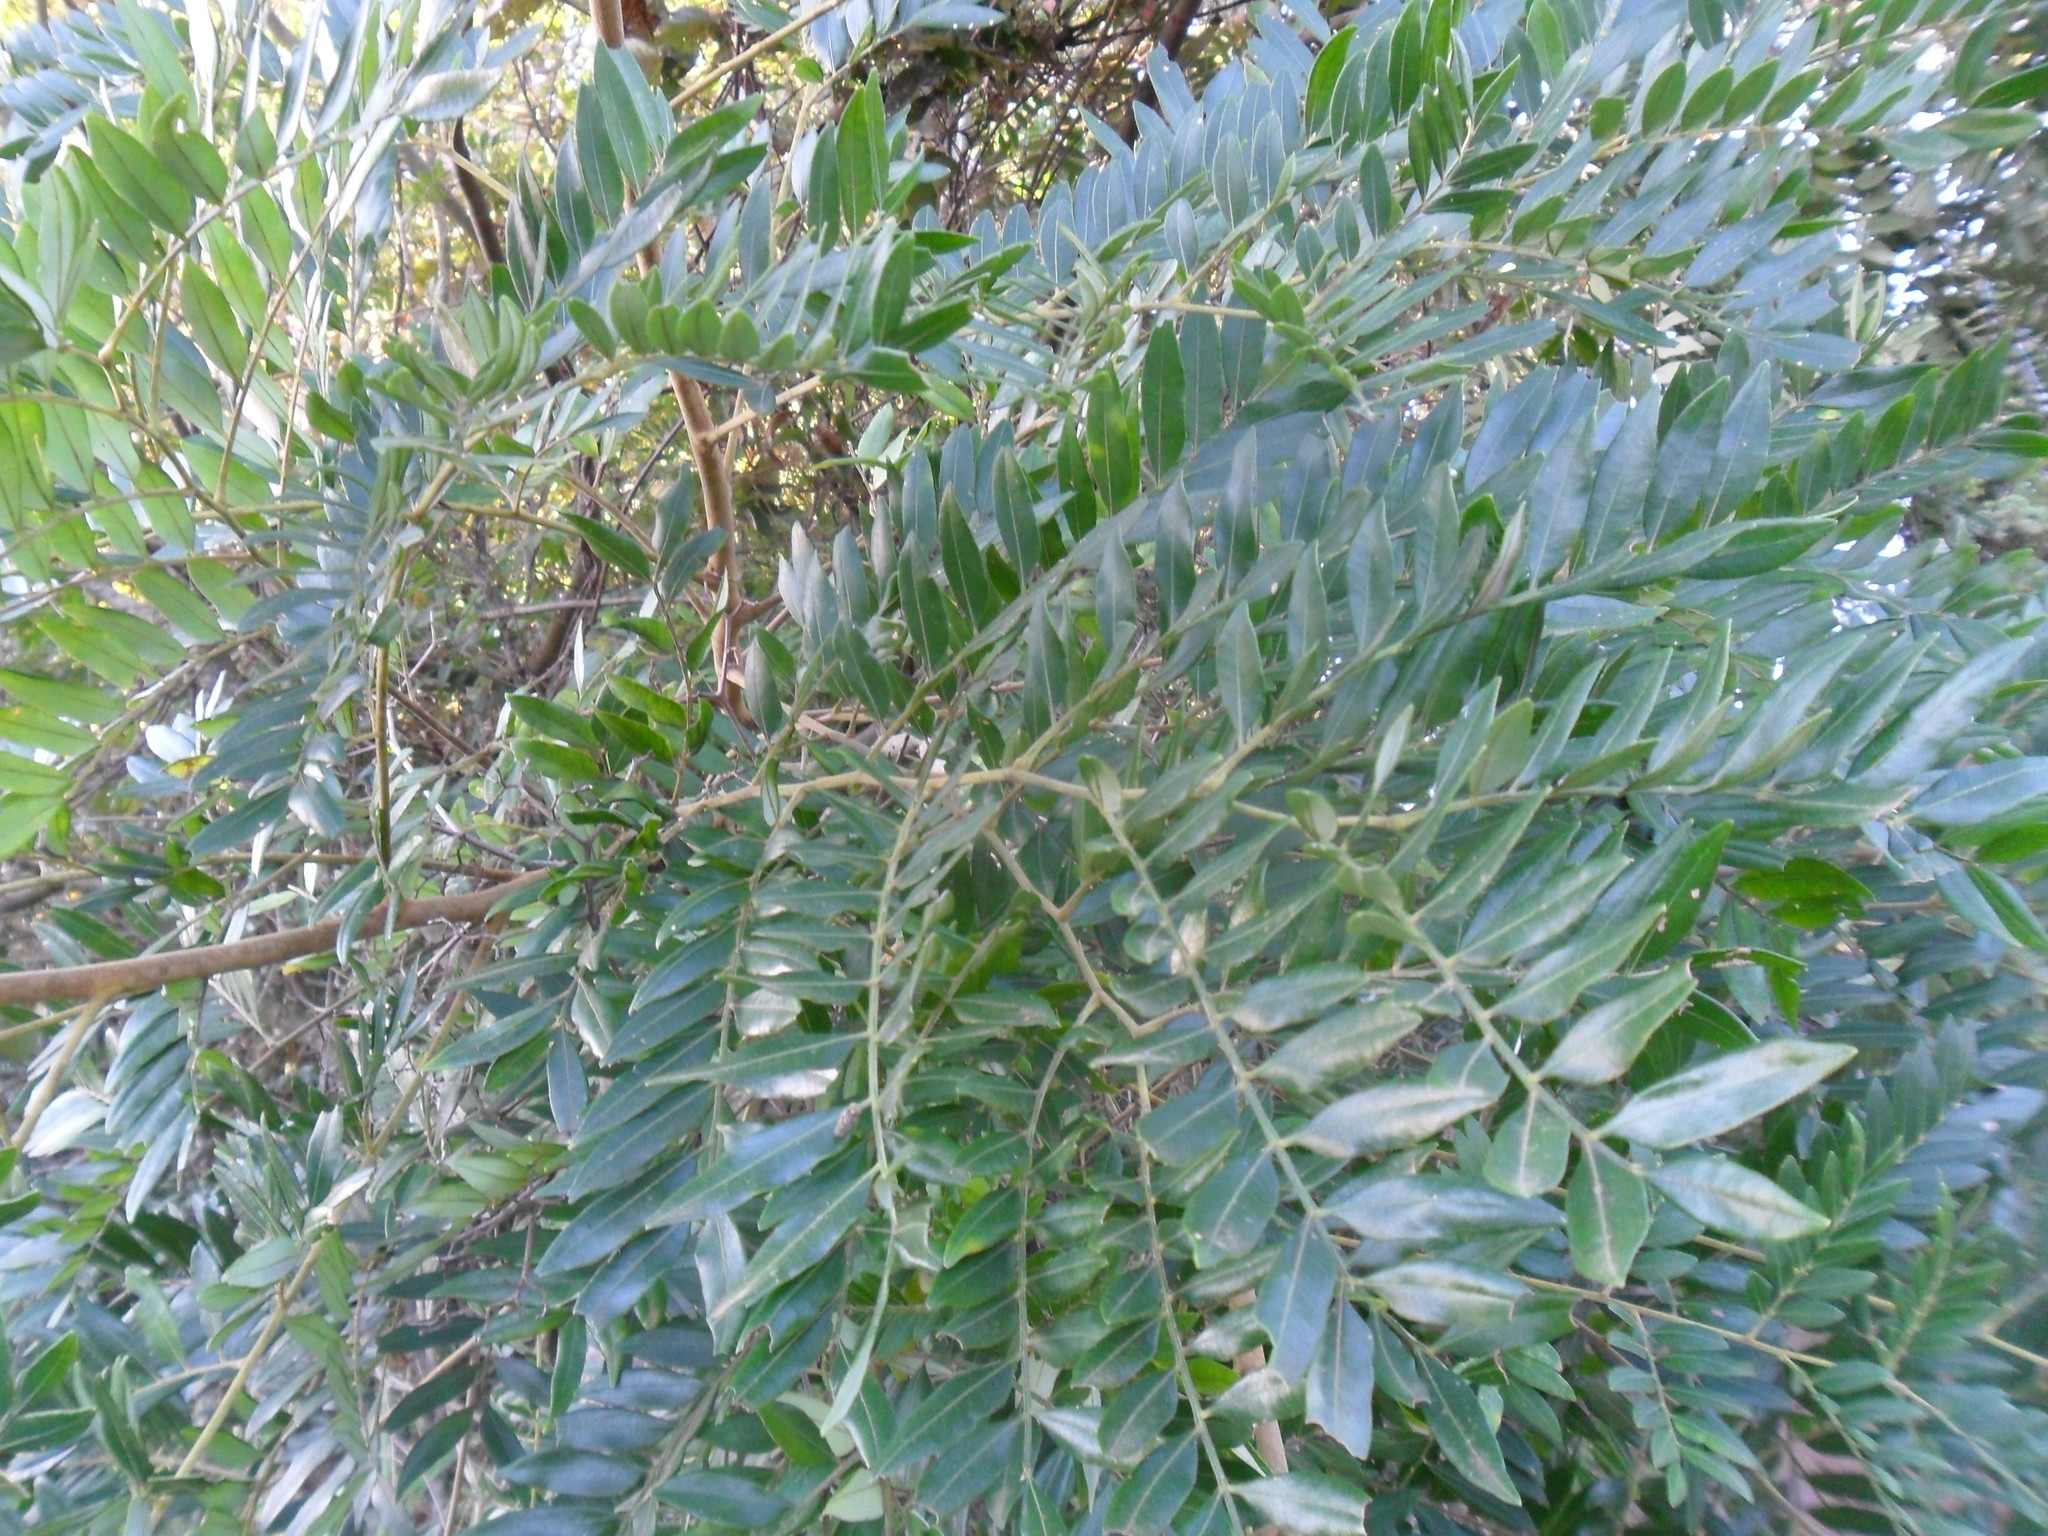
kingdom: Plantae
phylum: Tracheophyta
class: Magnoliopsida
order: Sapindales
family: Rutaceae
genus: Dictyoloma
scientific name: Dictyoloma vandellianum
